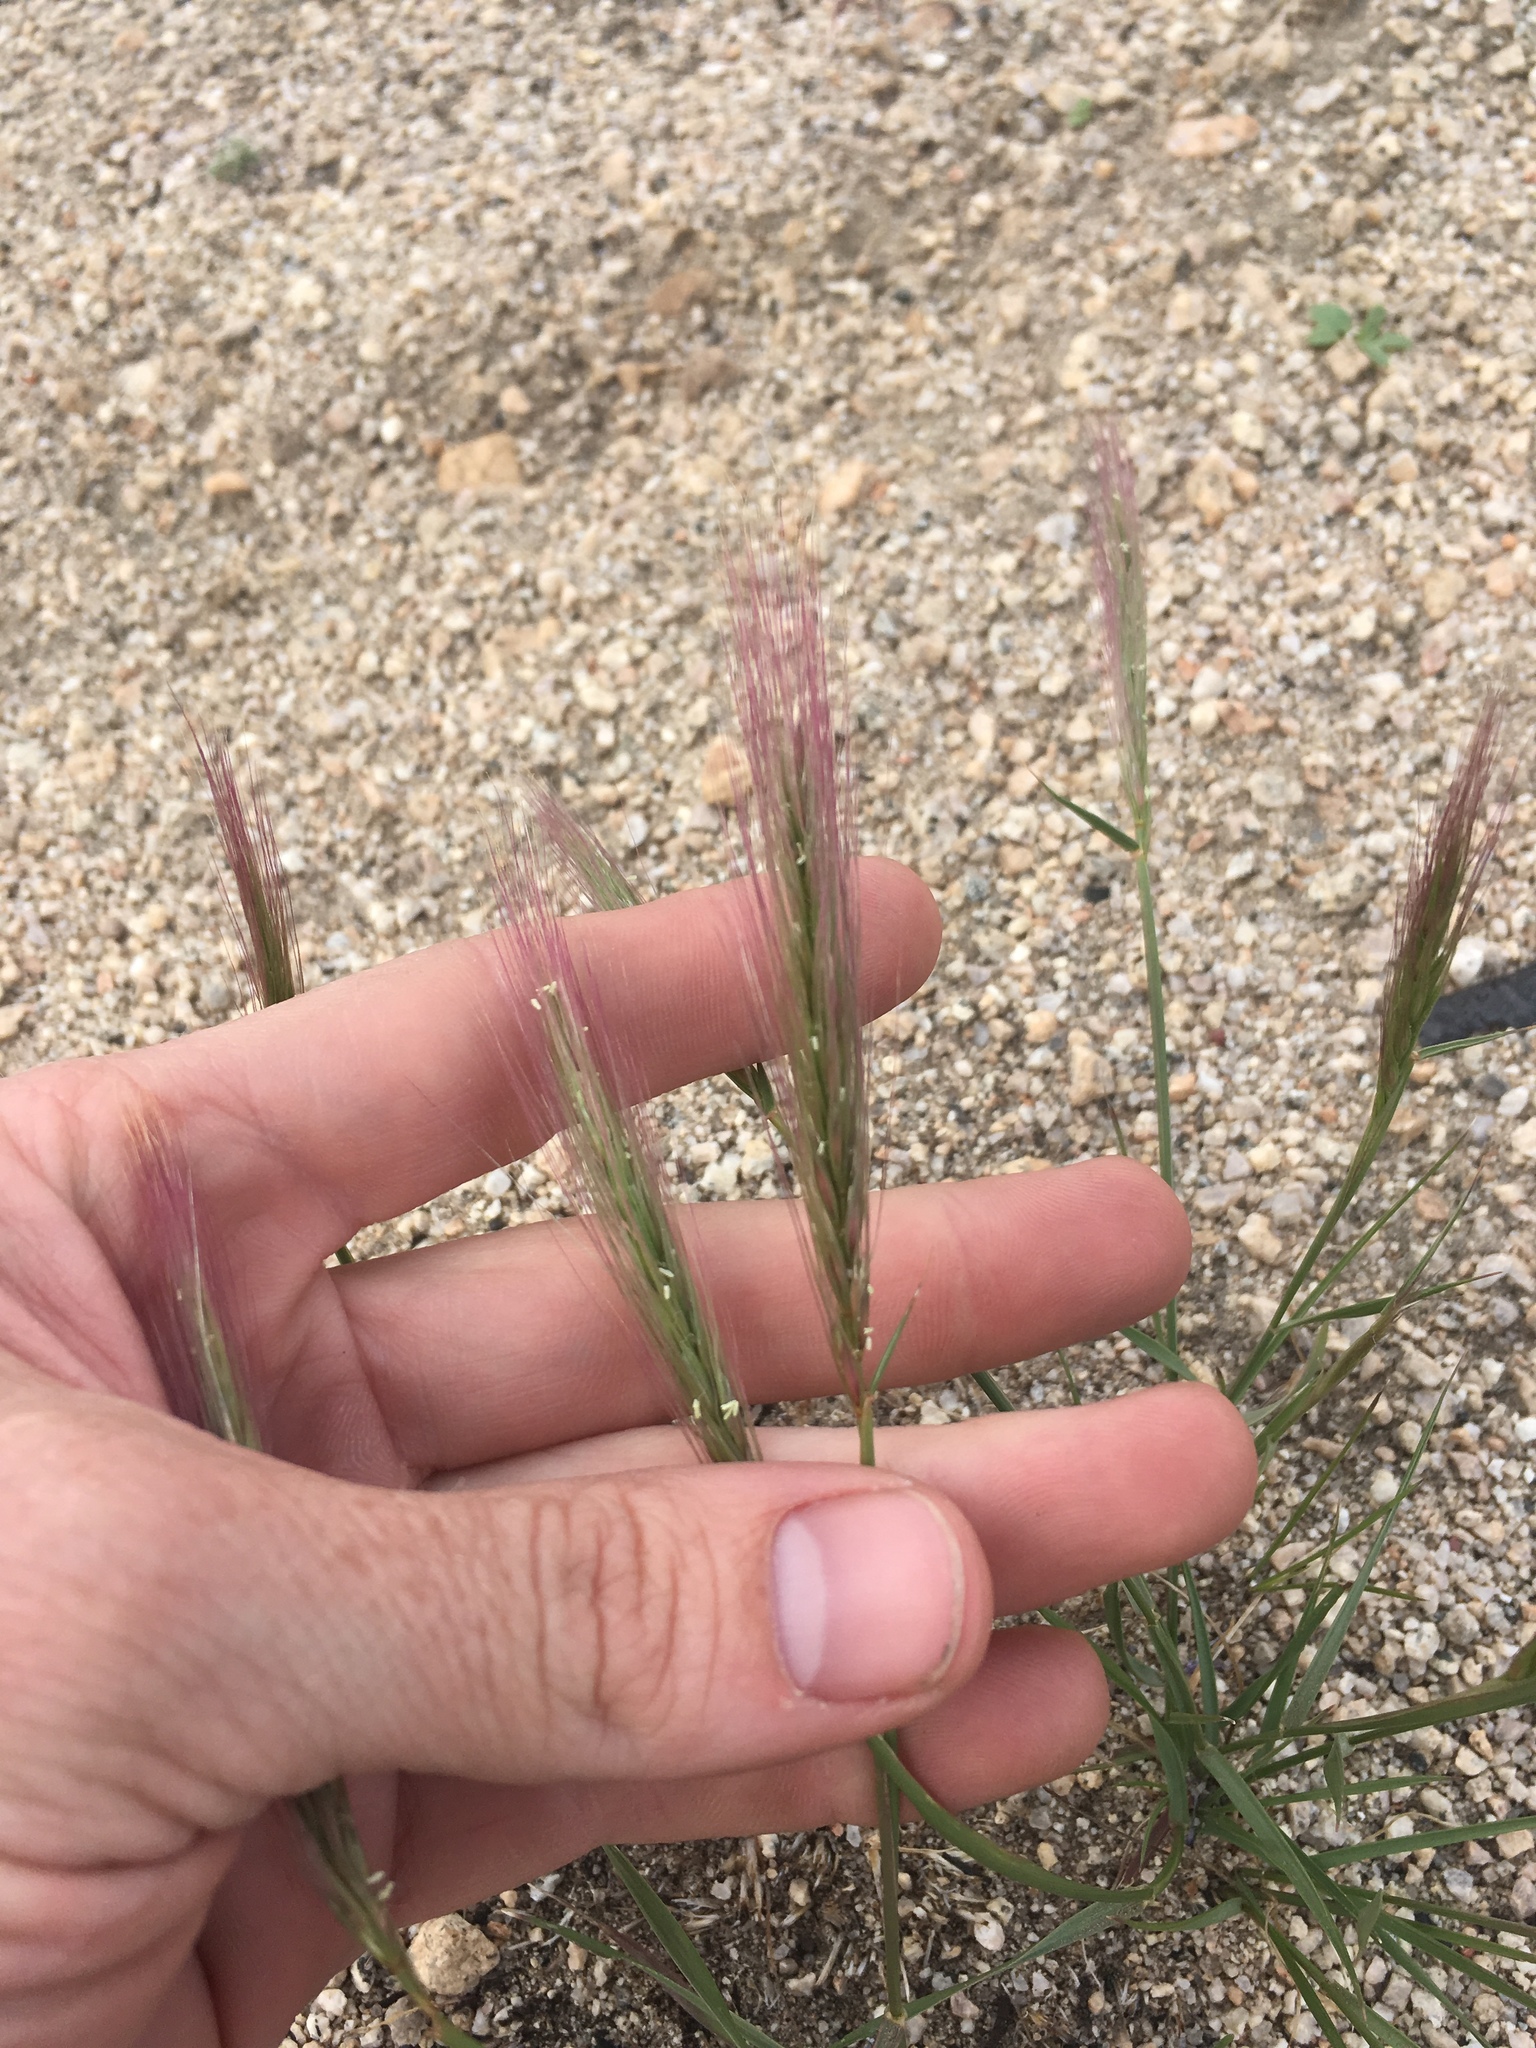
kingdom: Plantae
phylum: Tracheophyta
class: Liliopsida
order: Poales
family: Poaceae
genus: Elymus
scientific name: Elymus elymoides
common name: Bottlebrush squirreltail
